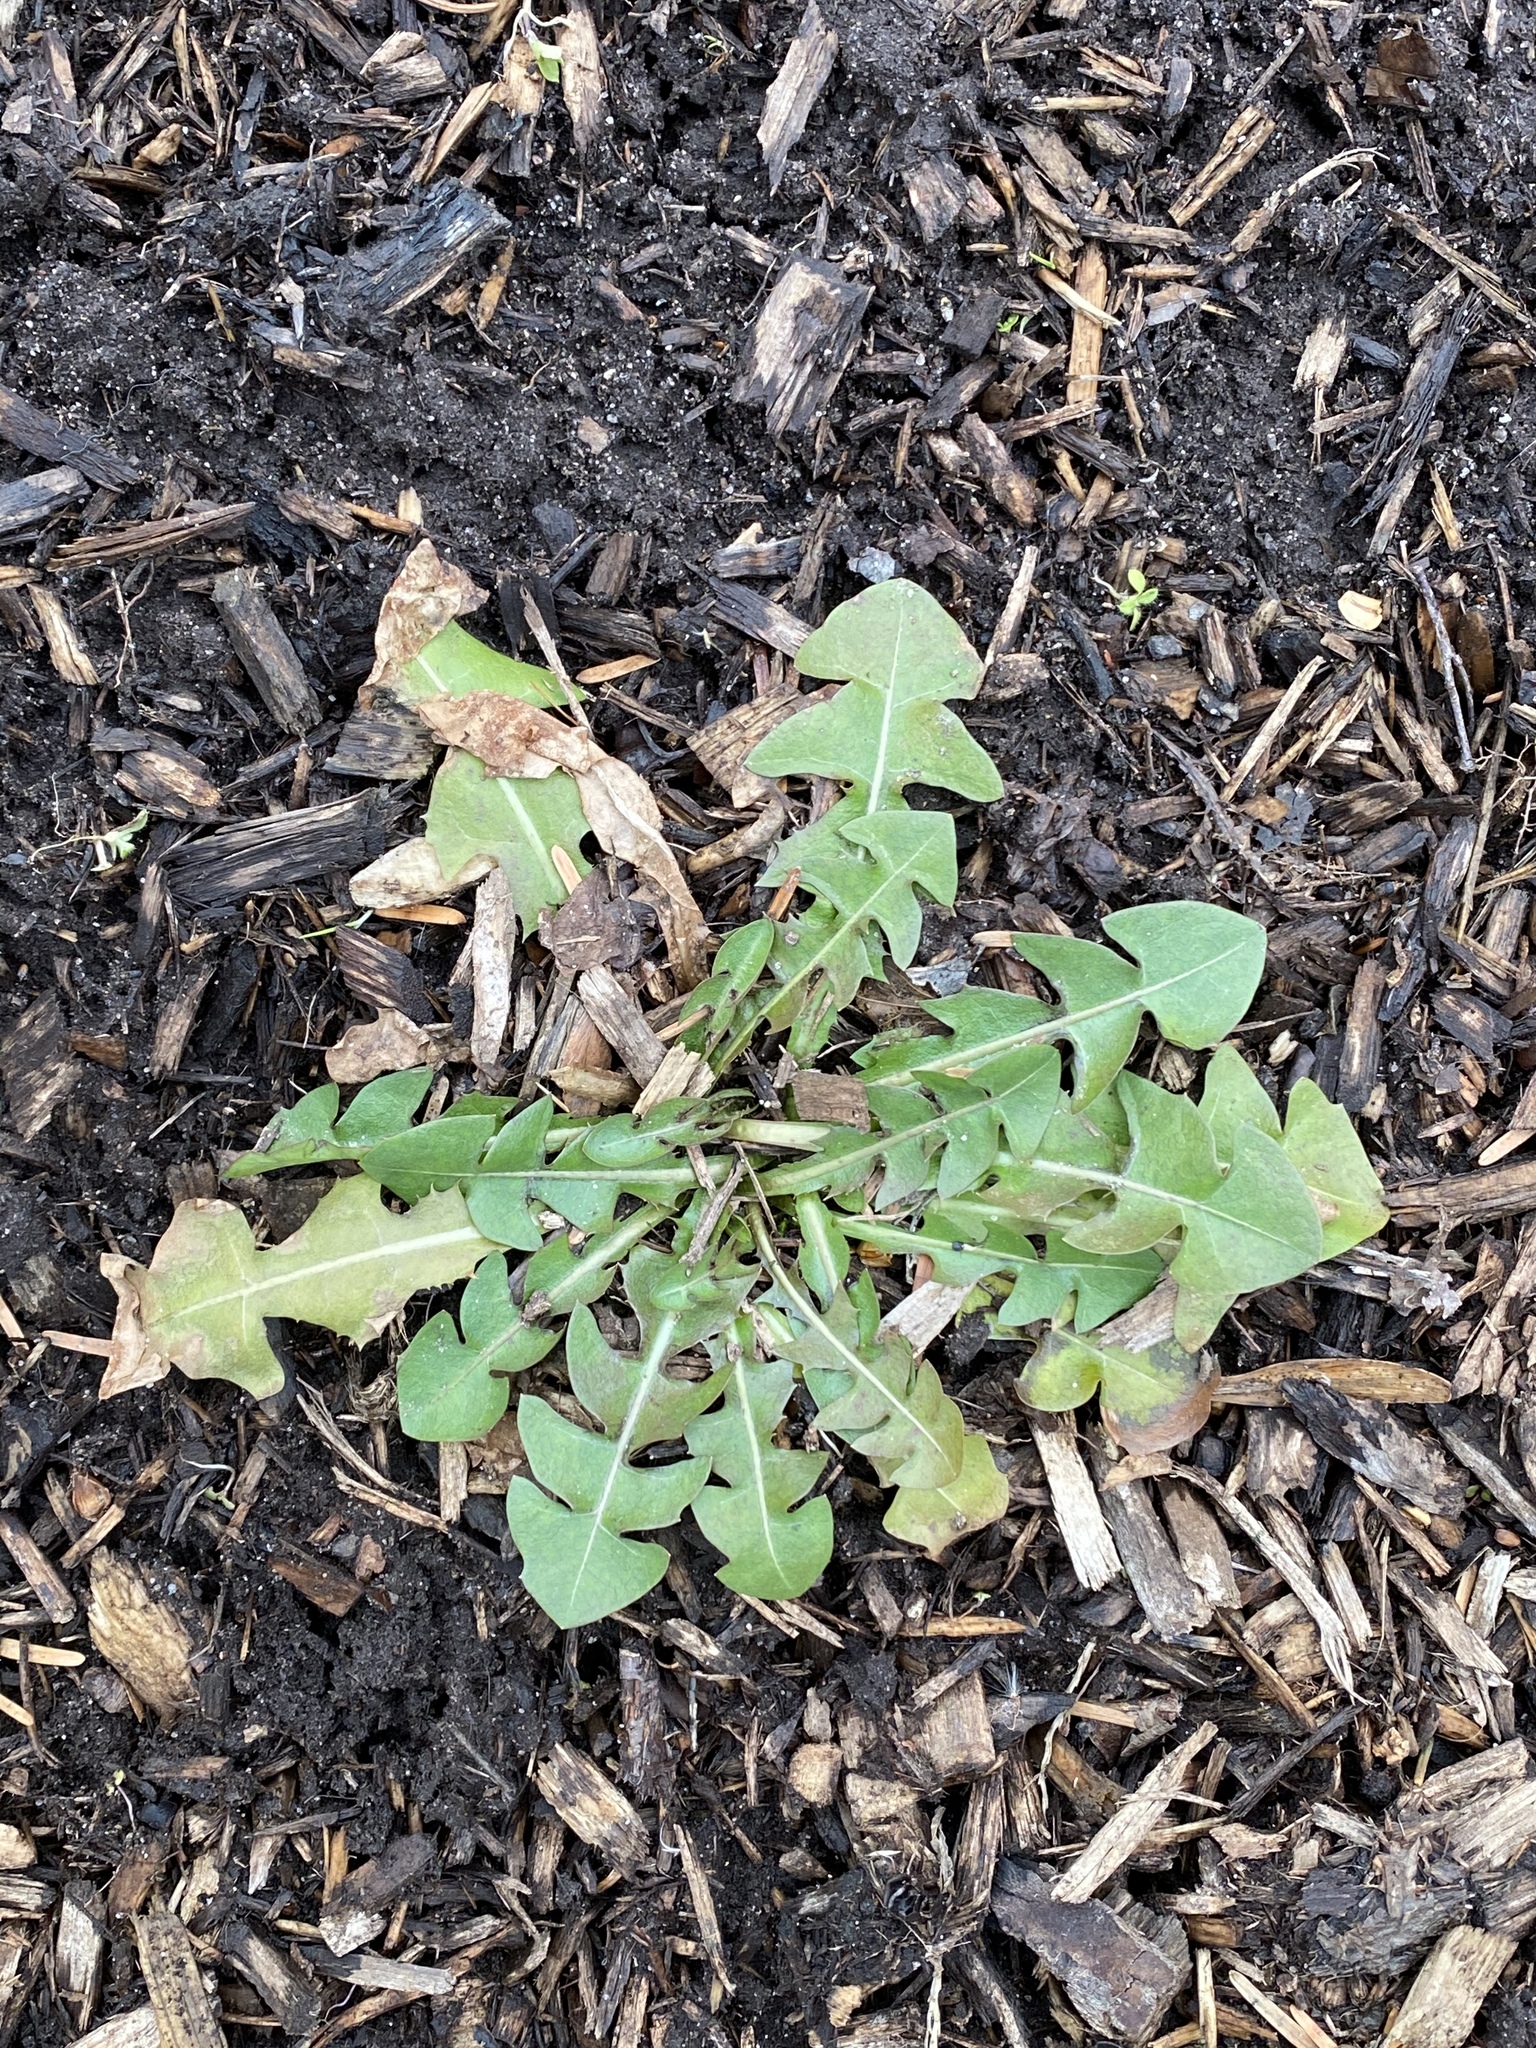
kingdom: Plantae
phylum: Tracheophyta
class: Magnoliopsida
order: Asterales
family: Asteraceae
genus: Taraxacum
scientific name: Taraxacum
